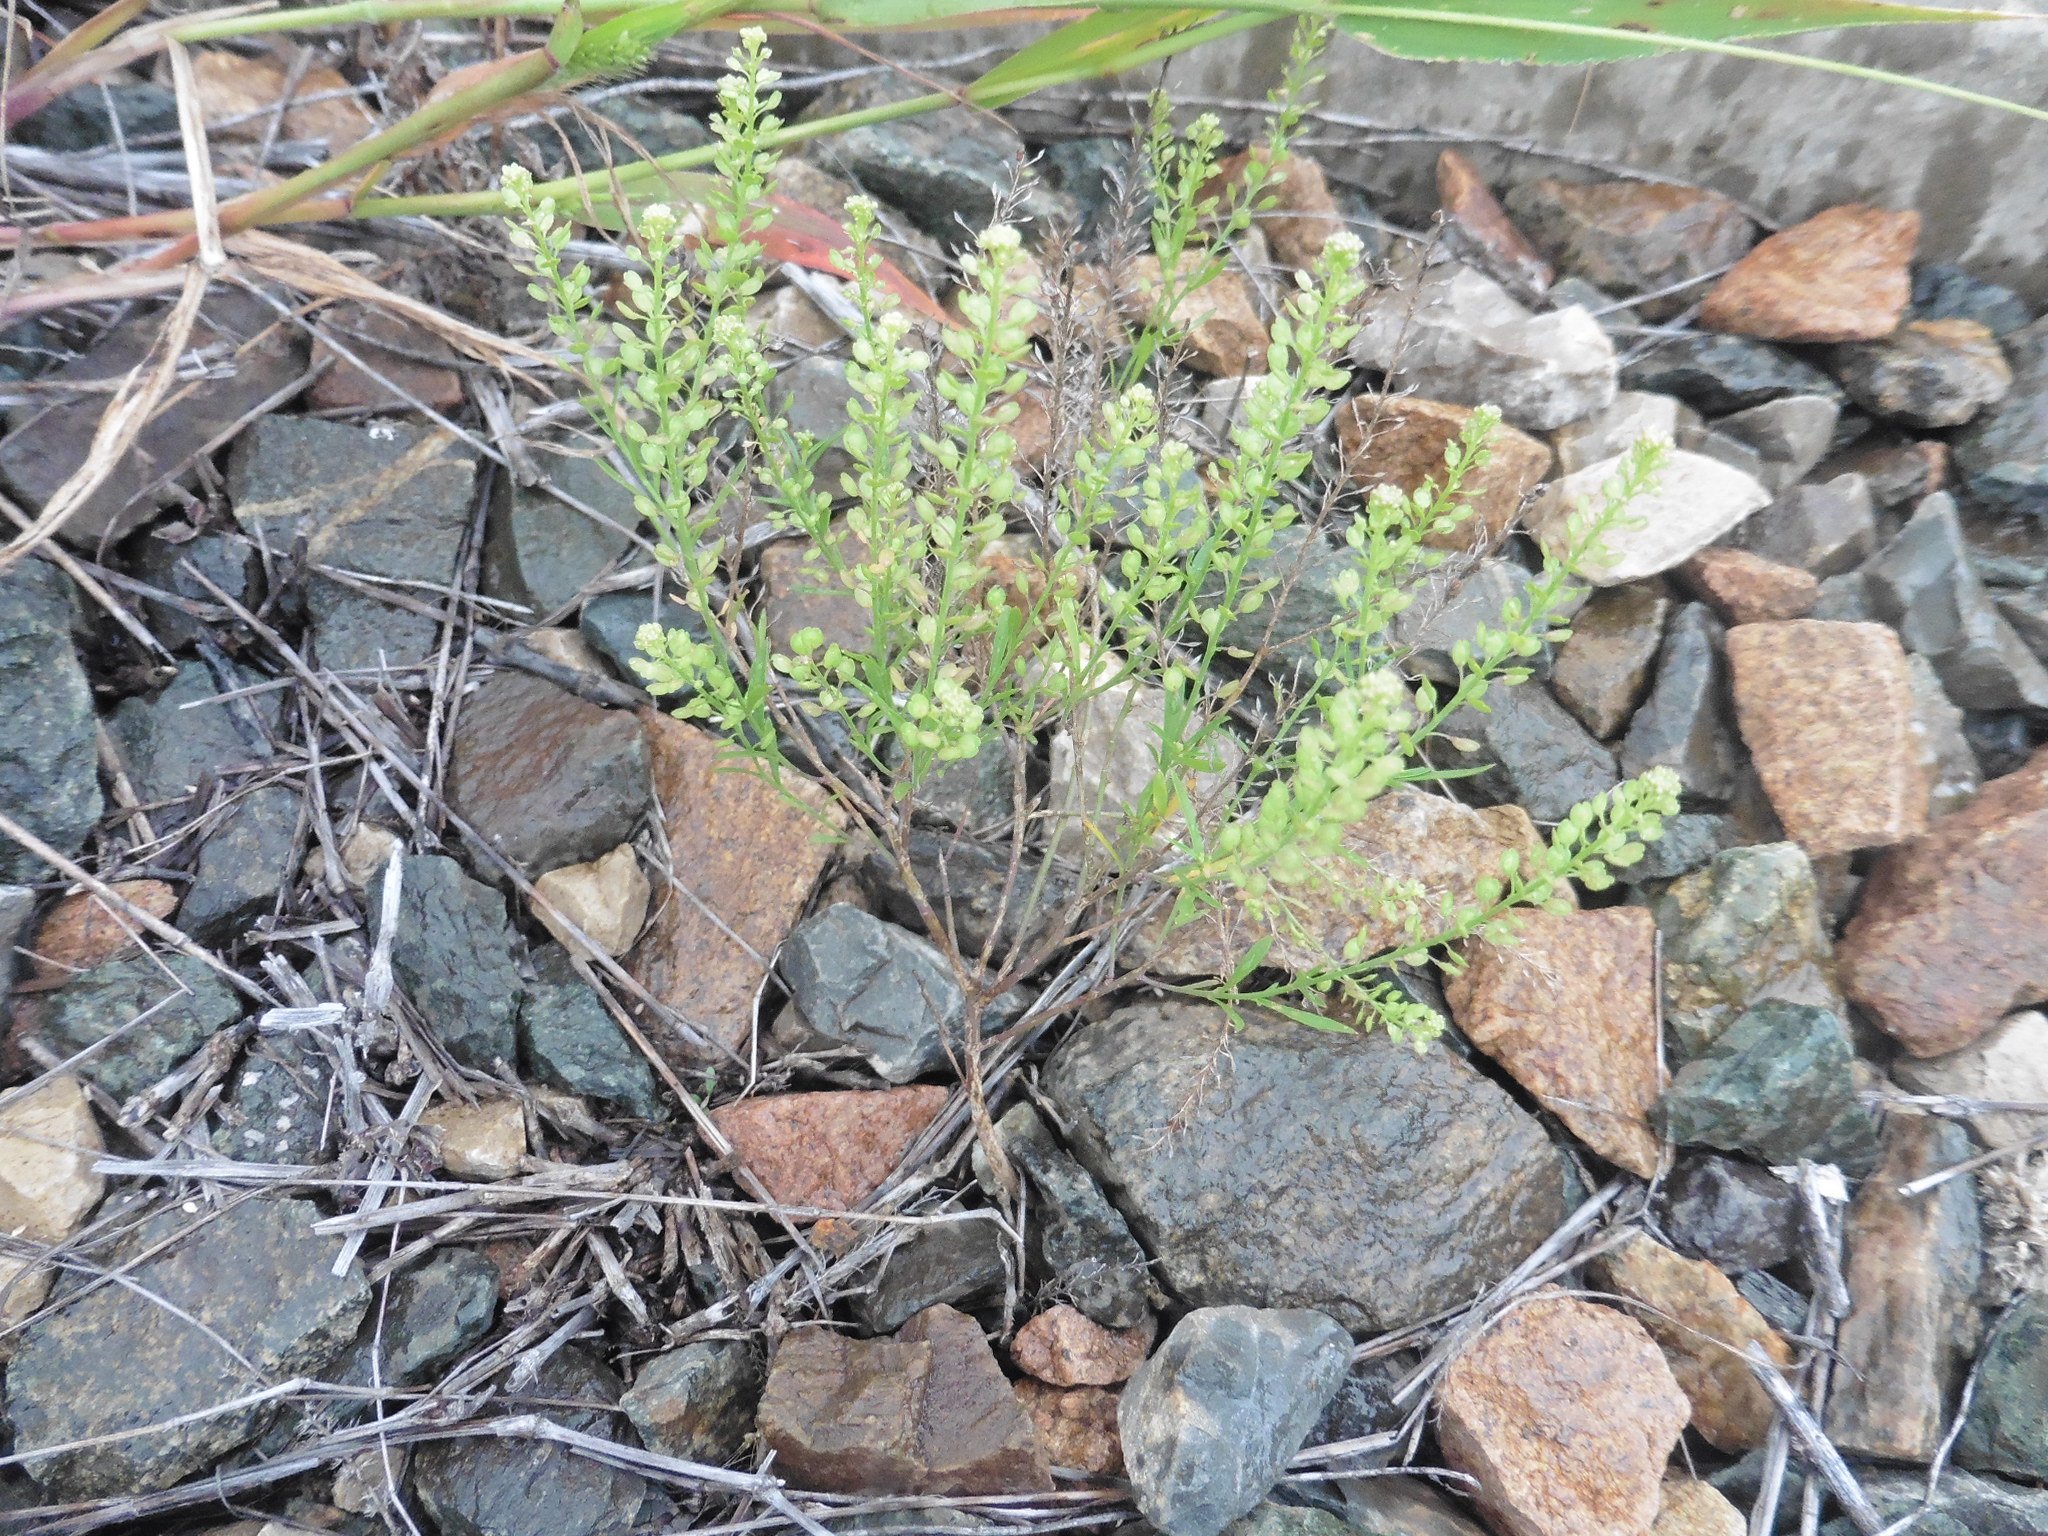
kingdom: Plantae
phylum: Tracheophyta
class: Magnoliopsida
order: Brassicales
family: Brassicaceae
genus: Lepidium
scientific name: Lepidium densiflorum
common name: Miner's pepperwort
